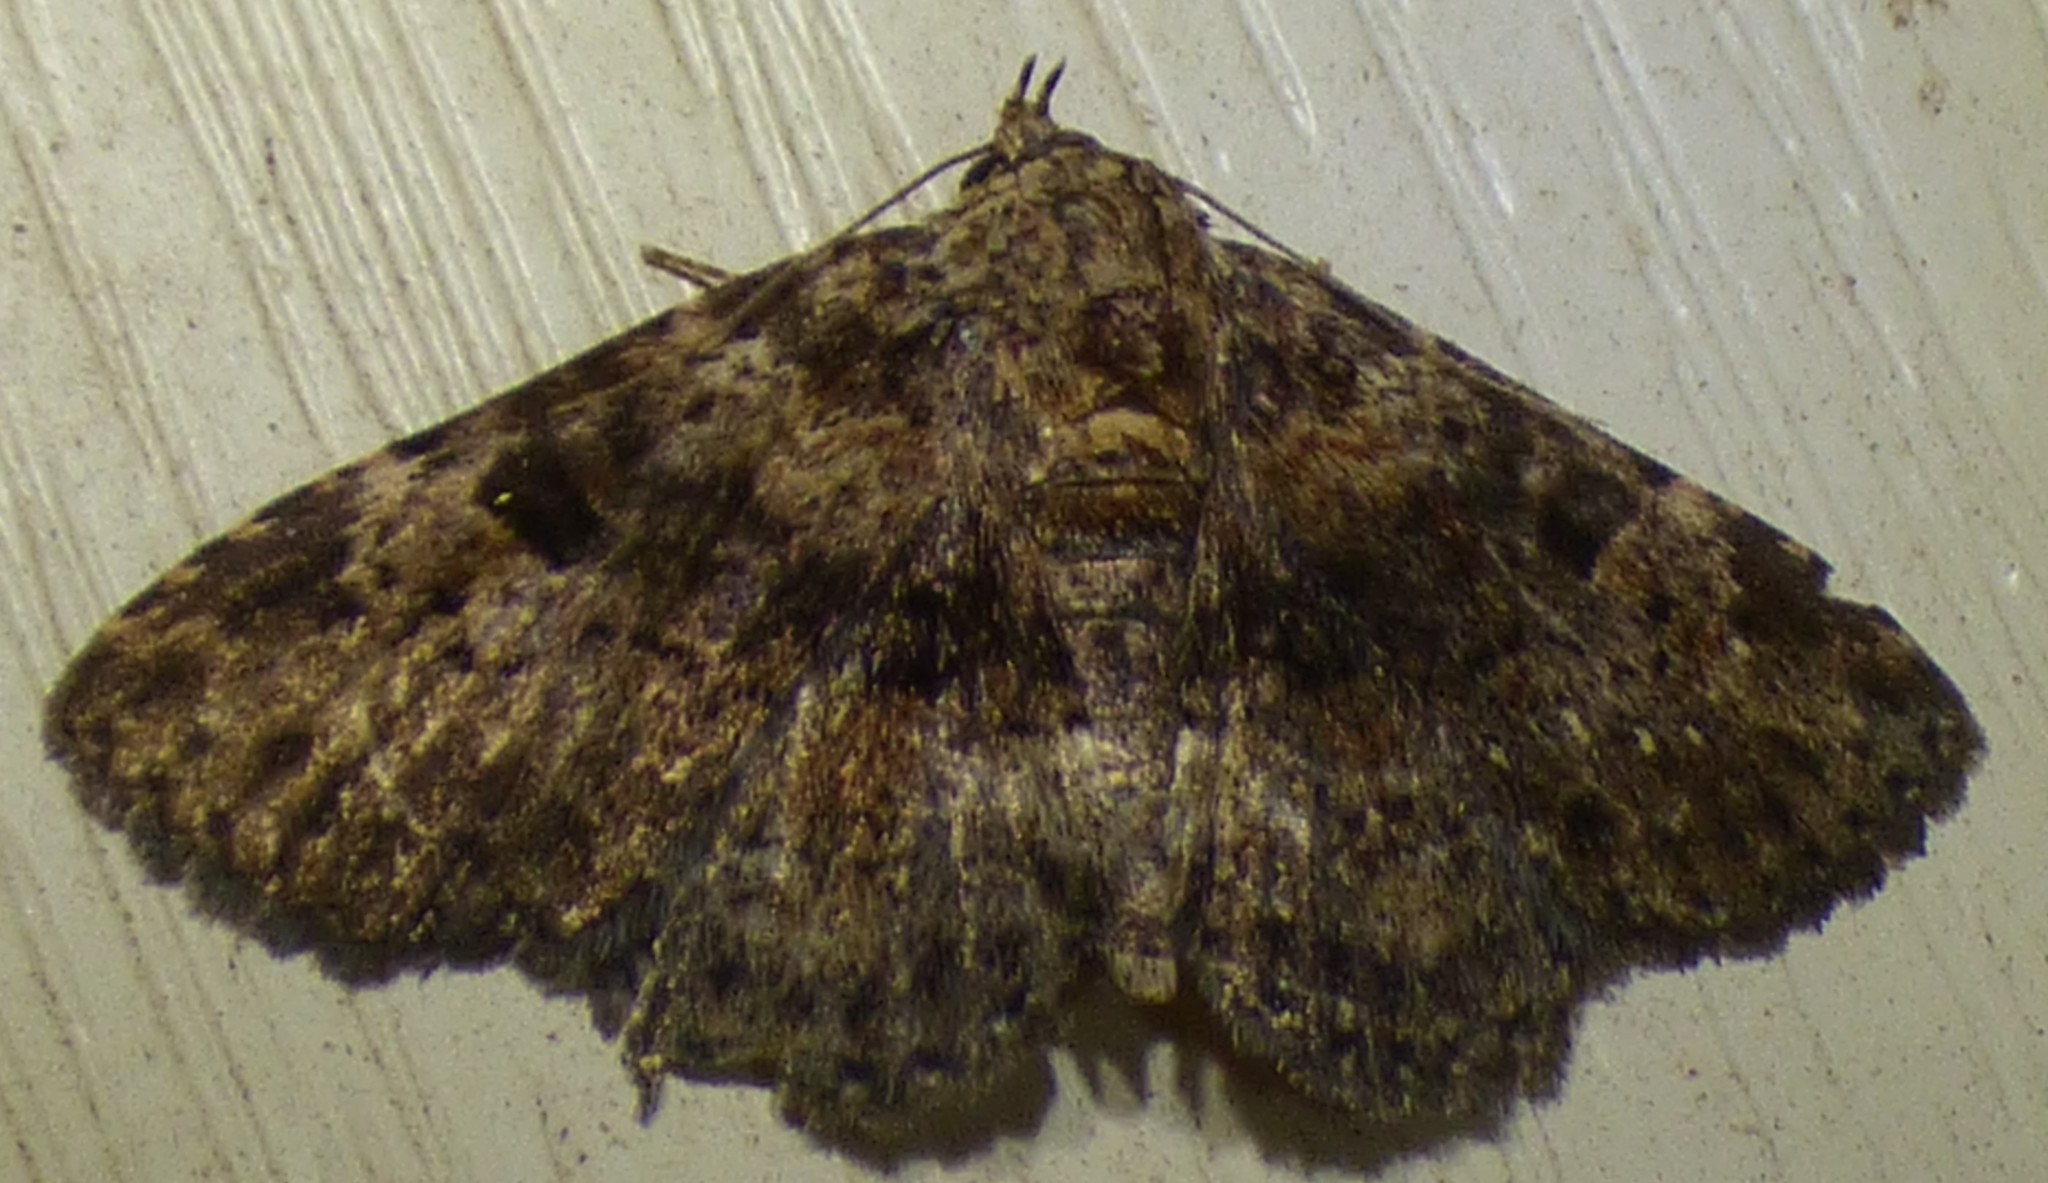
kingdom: Animalia
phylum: Arthropoda
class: Insecta
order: Lepidoptera
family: Erebidae
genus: Metalectra
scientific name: Metalectra discalis
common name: Common fungus moth
